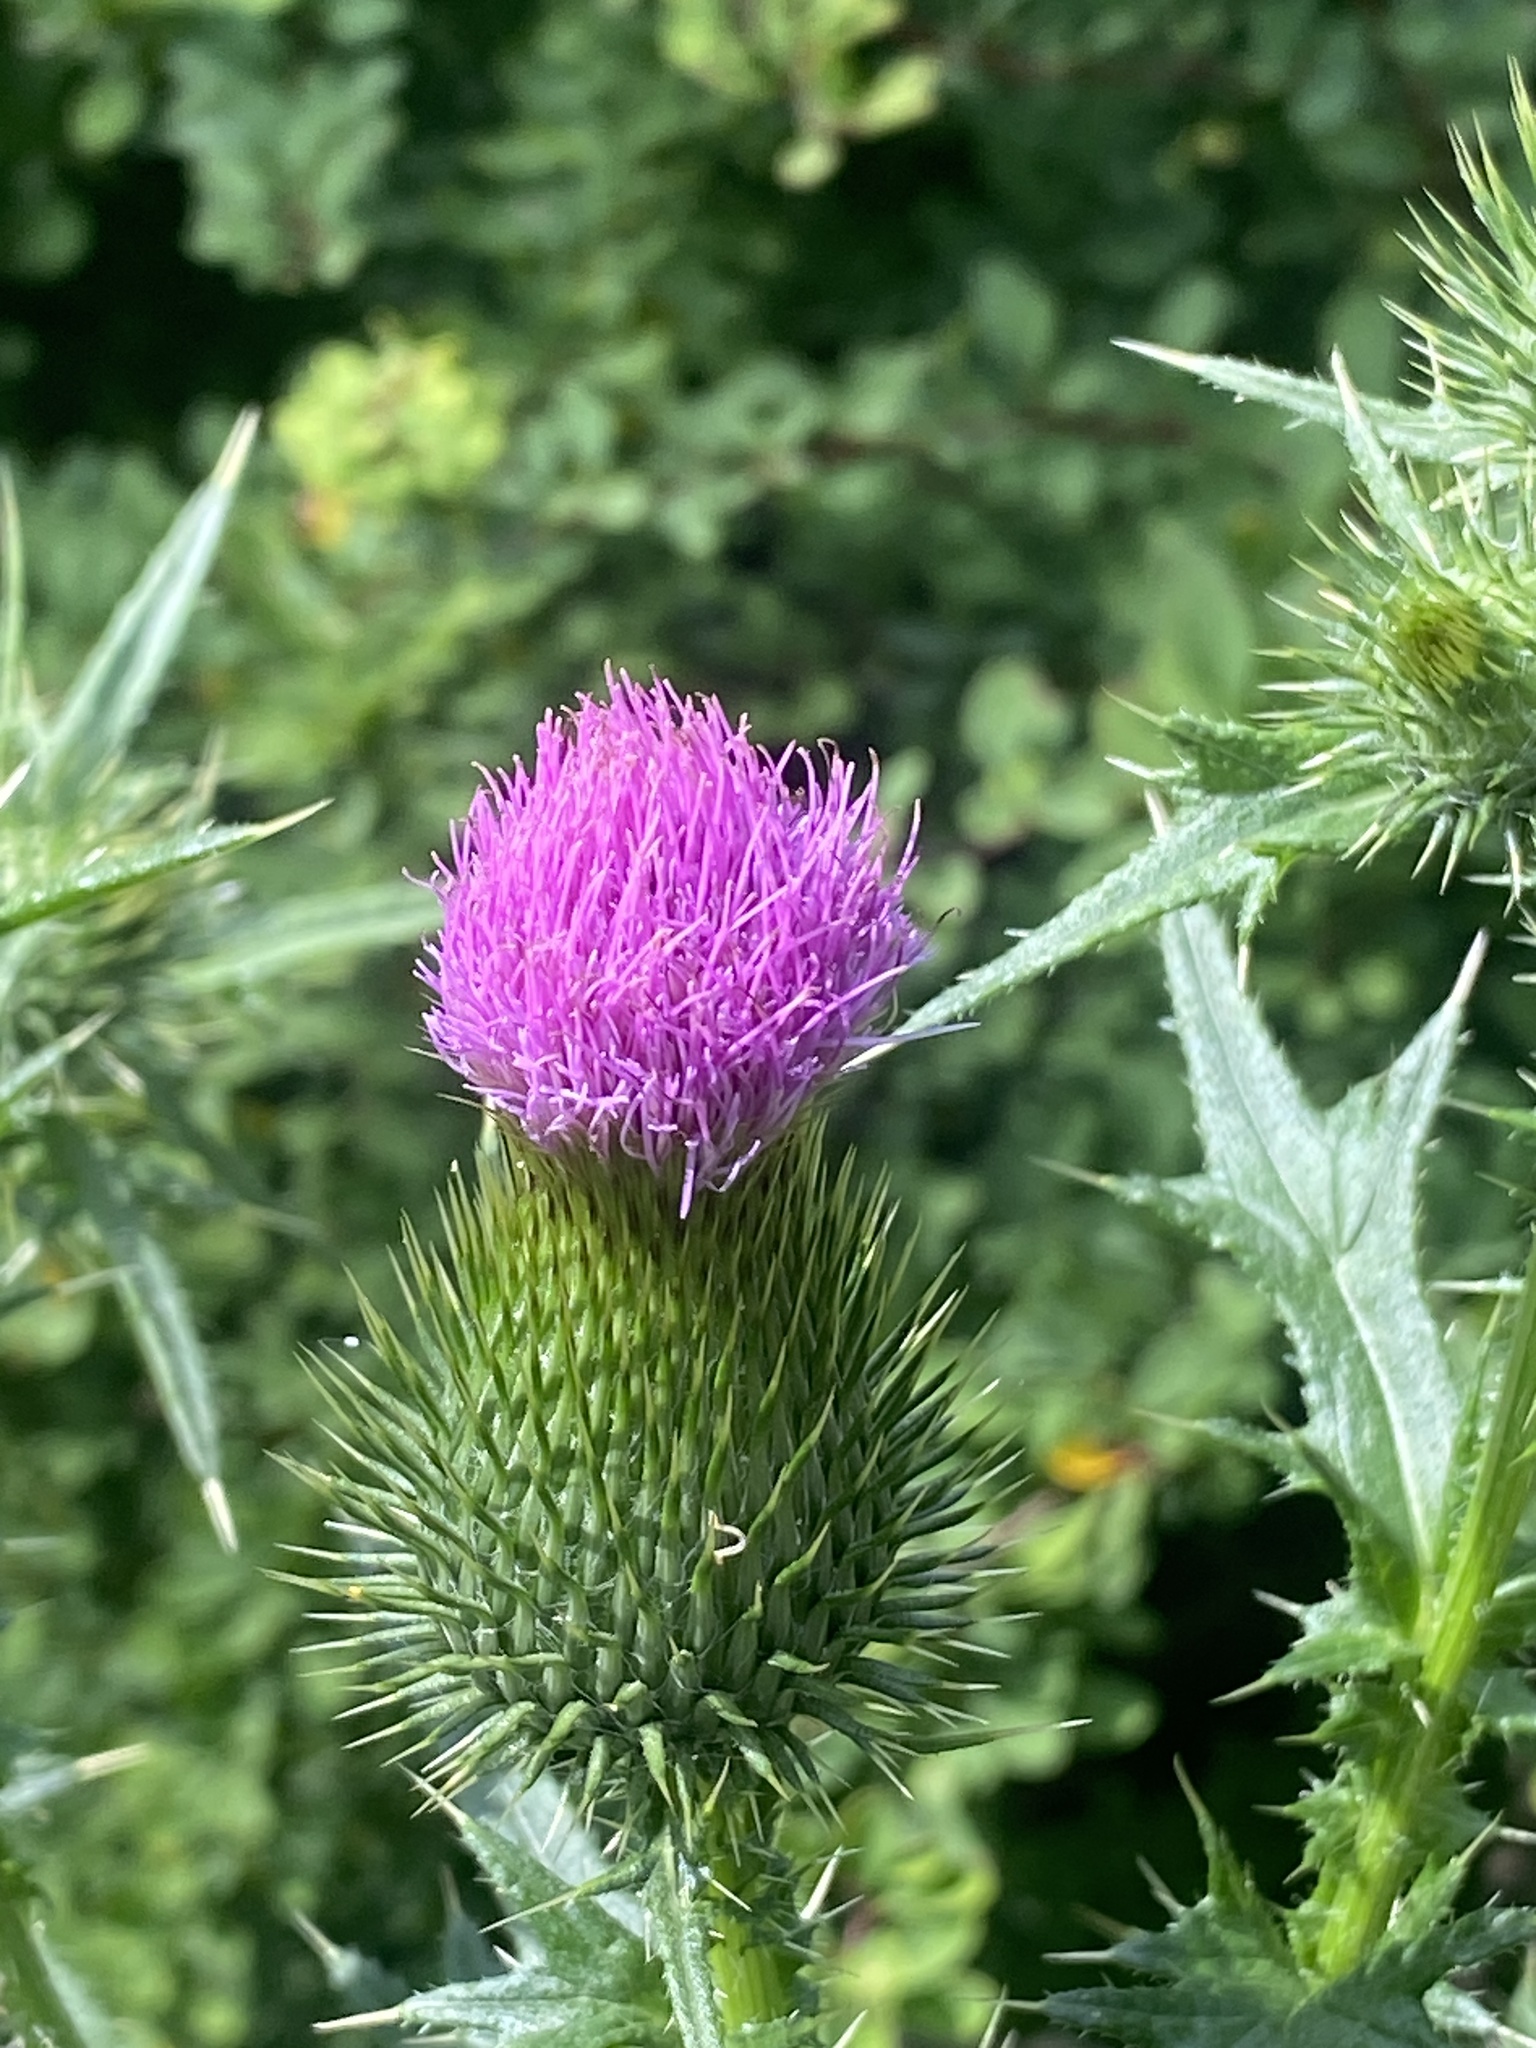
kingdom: Plantae
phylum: Tracheophyta
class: Magnoliopsida
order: Asterales
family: Asteraceae
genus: Cirsium
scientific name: Cirsium vulgare
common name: Bull thistle
